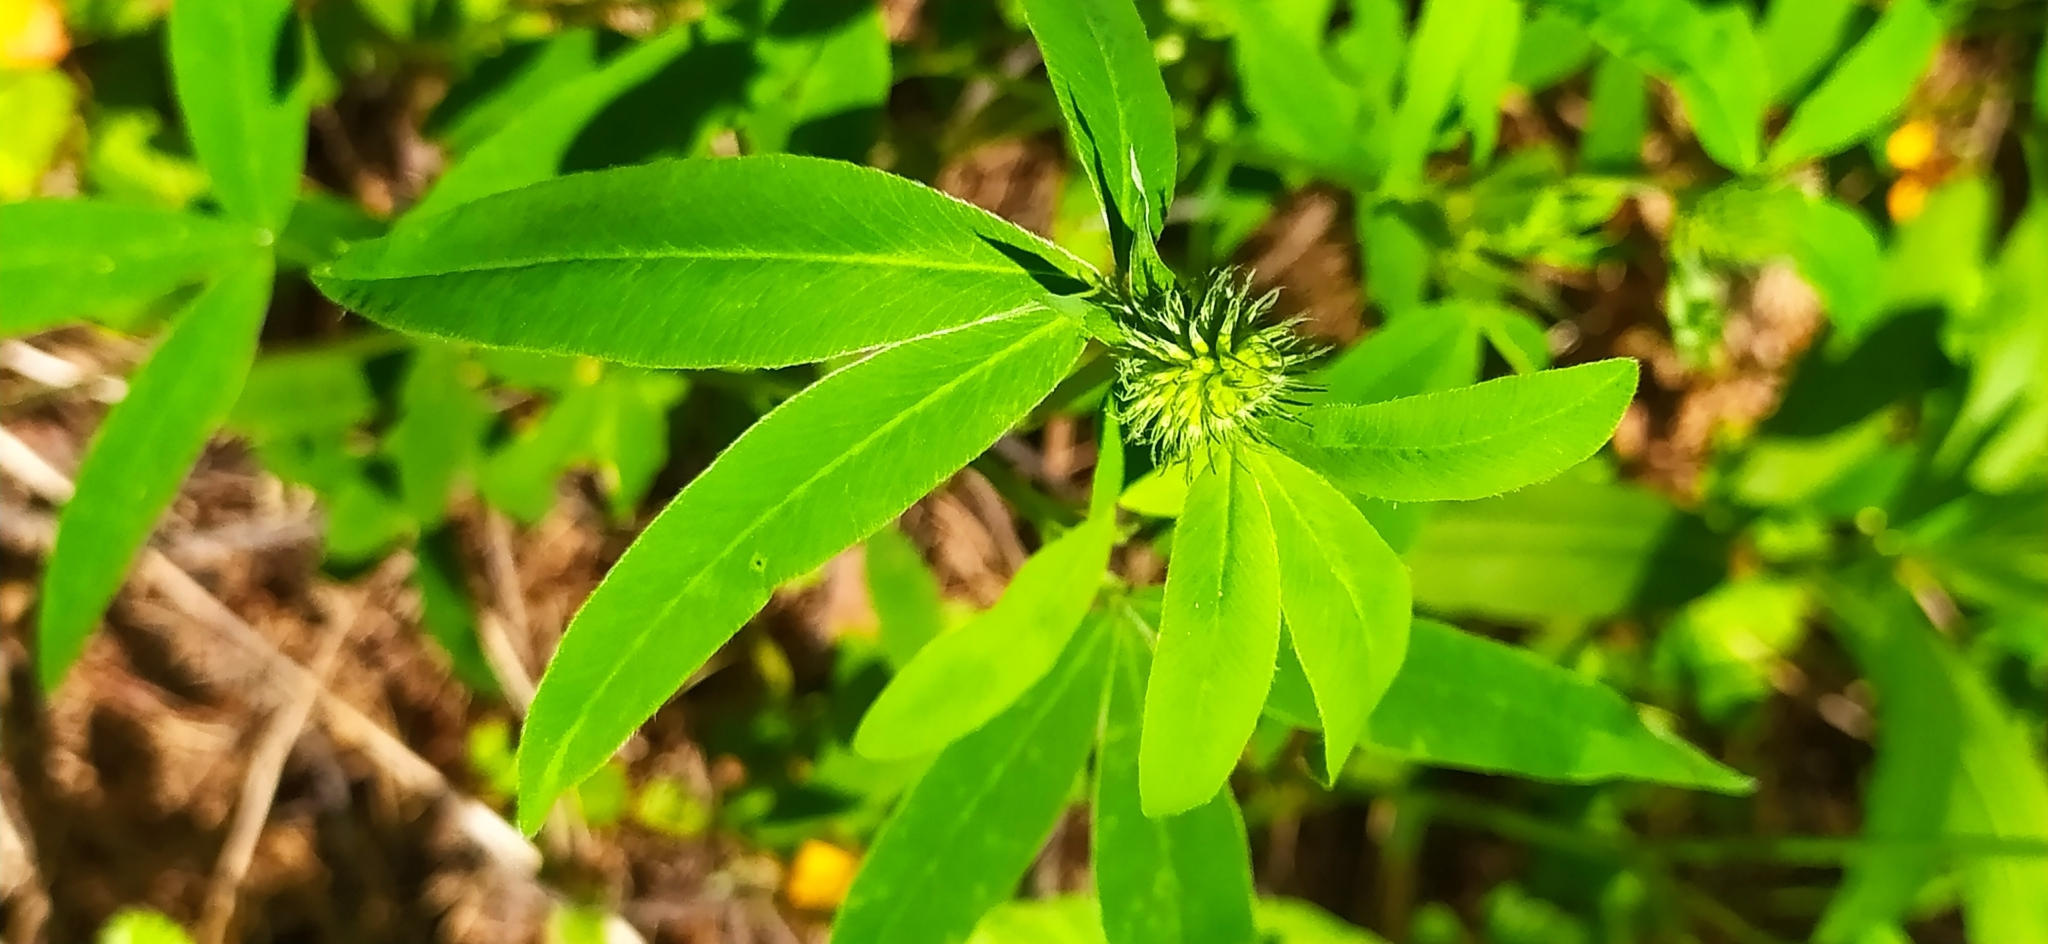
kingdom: Plantae
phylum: Tracheophyta
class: Magnoliopsida
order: Fabales
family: Fabaceae
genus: Trifolium
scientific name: Trifolium medium
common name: Zigzag clover
